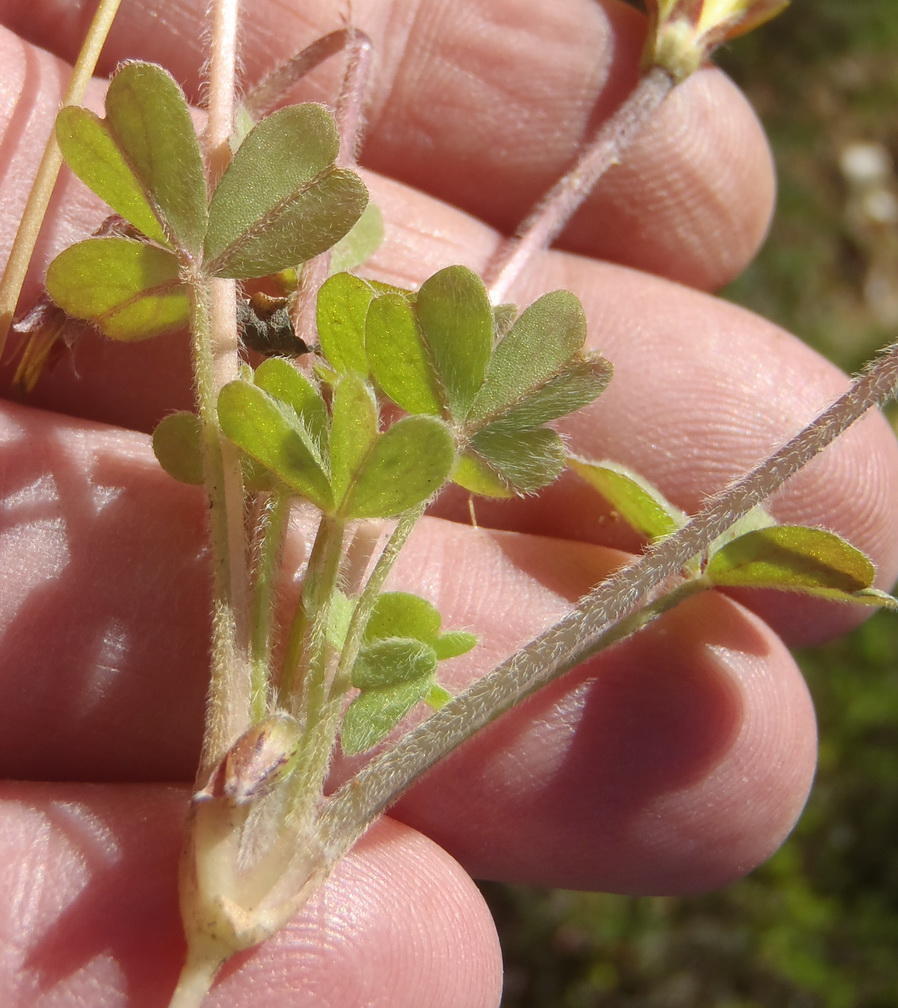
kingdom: Plantae
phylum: Tracheophyta
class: Magnoliopsida
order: Oxalidales
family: Oxalidaceae
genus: Oxalis
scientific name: Oxalis obtusa
